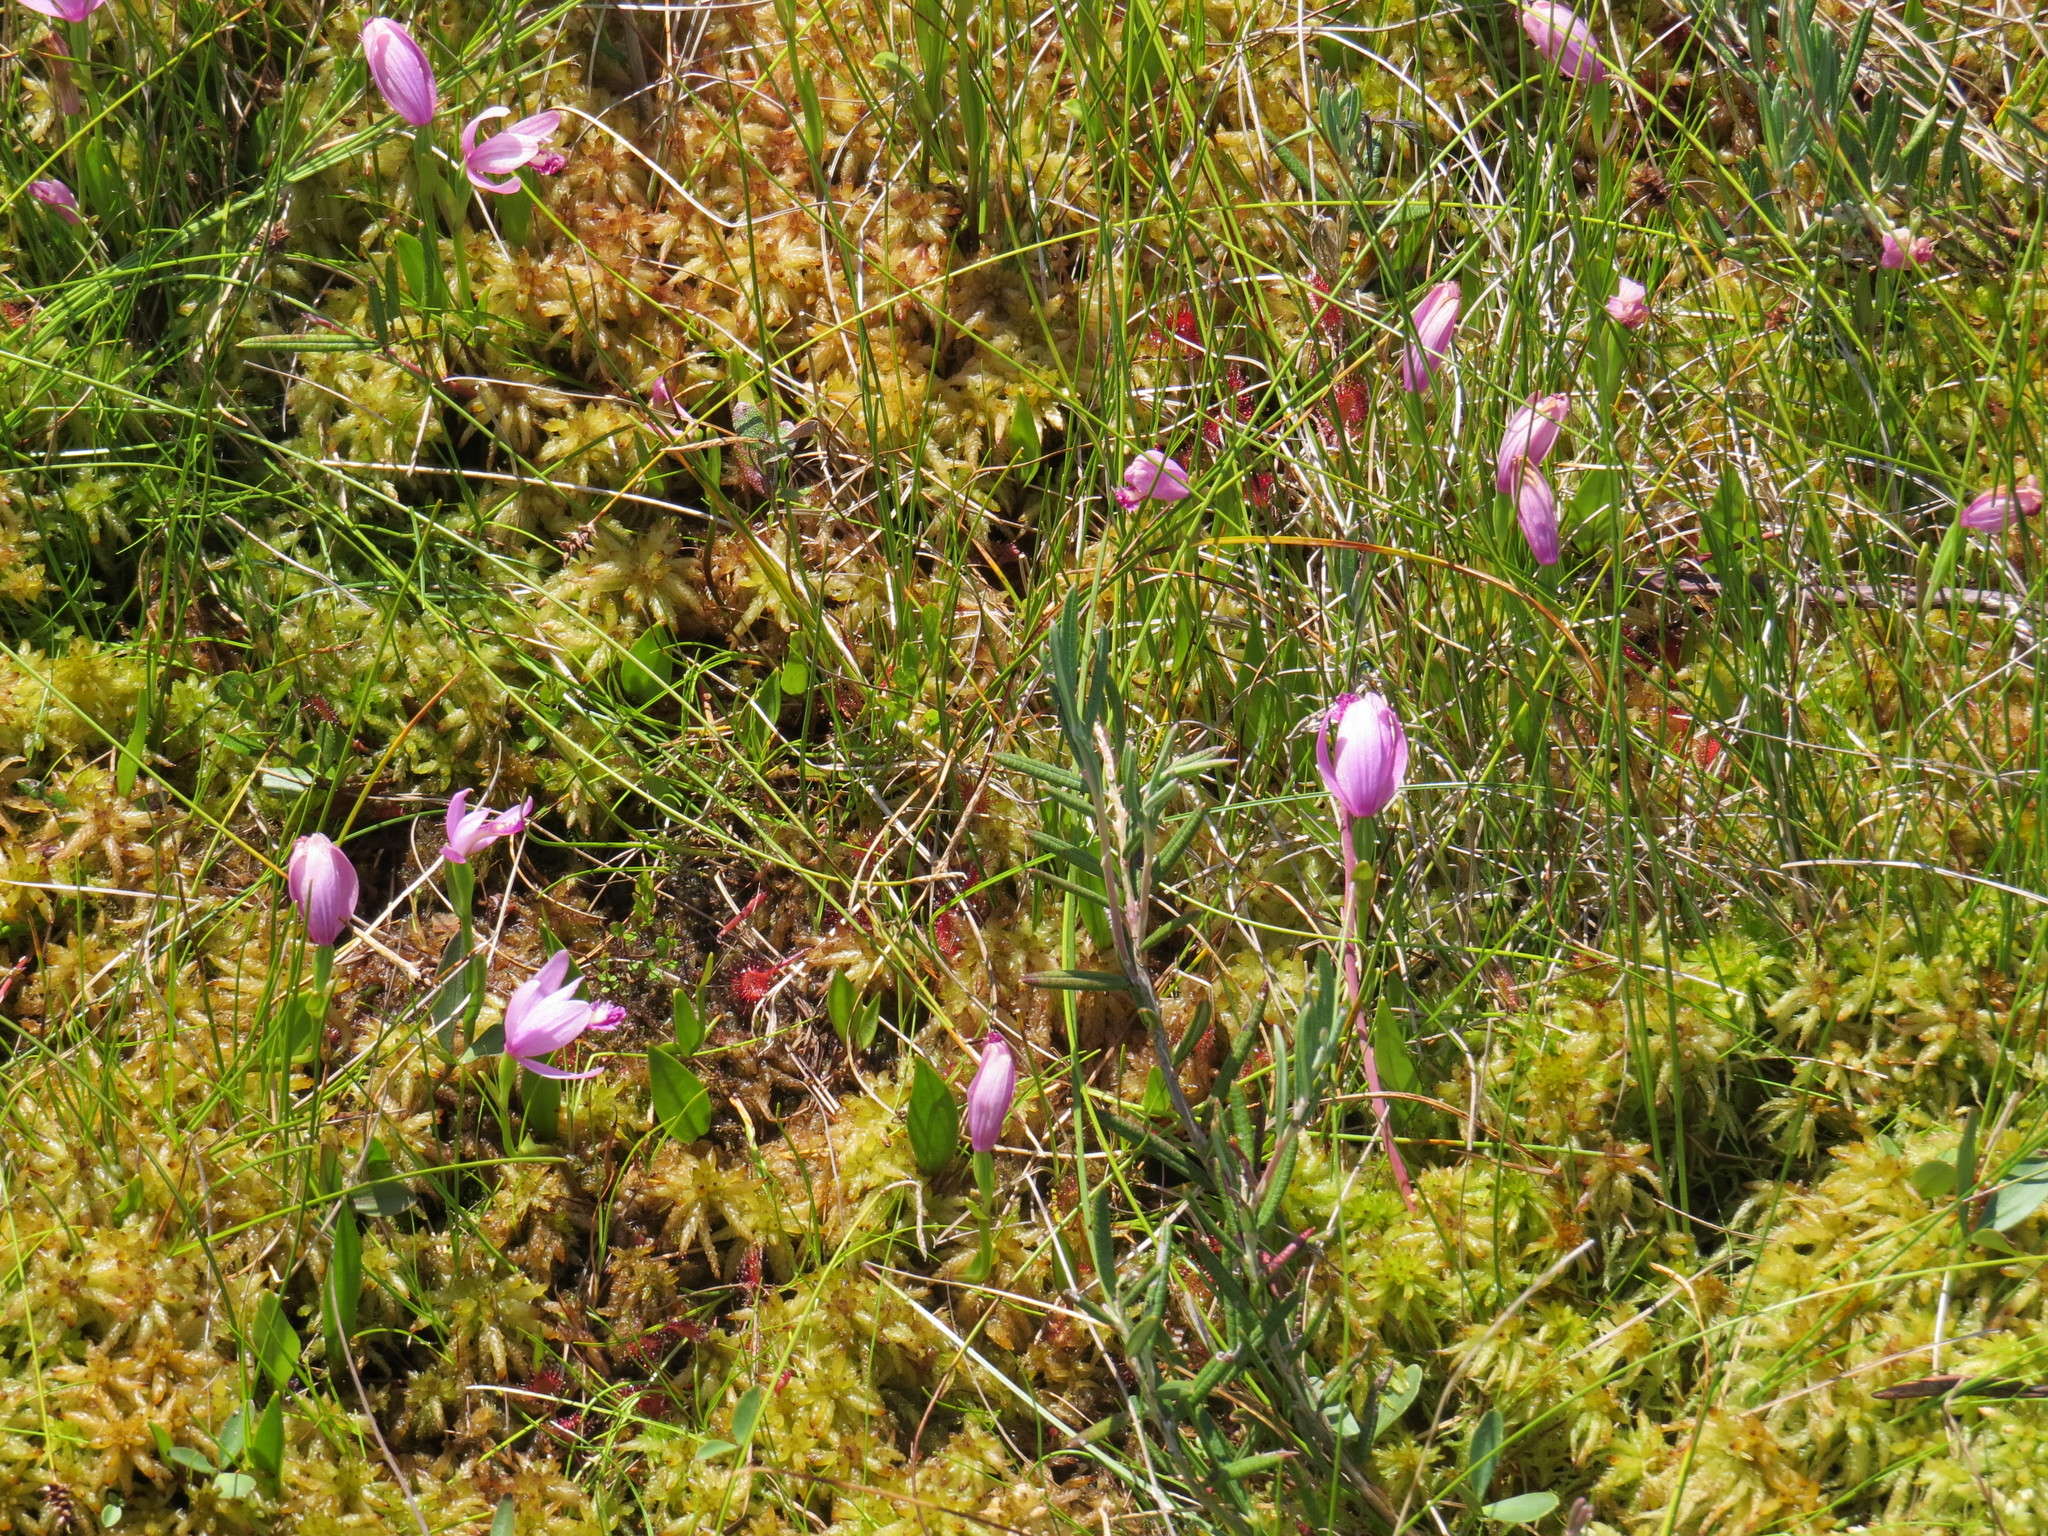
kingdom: Plantae
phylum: Tracheophyta
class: Liliopsida
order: Asparagales
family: Orchidaceae
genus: Pogonia
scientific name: Pogonia ophioglossoides
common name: Rose pogonia
